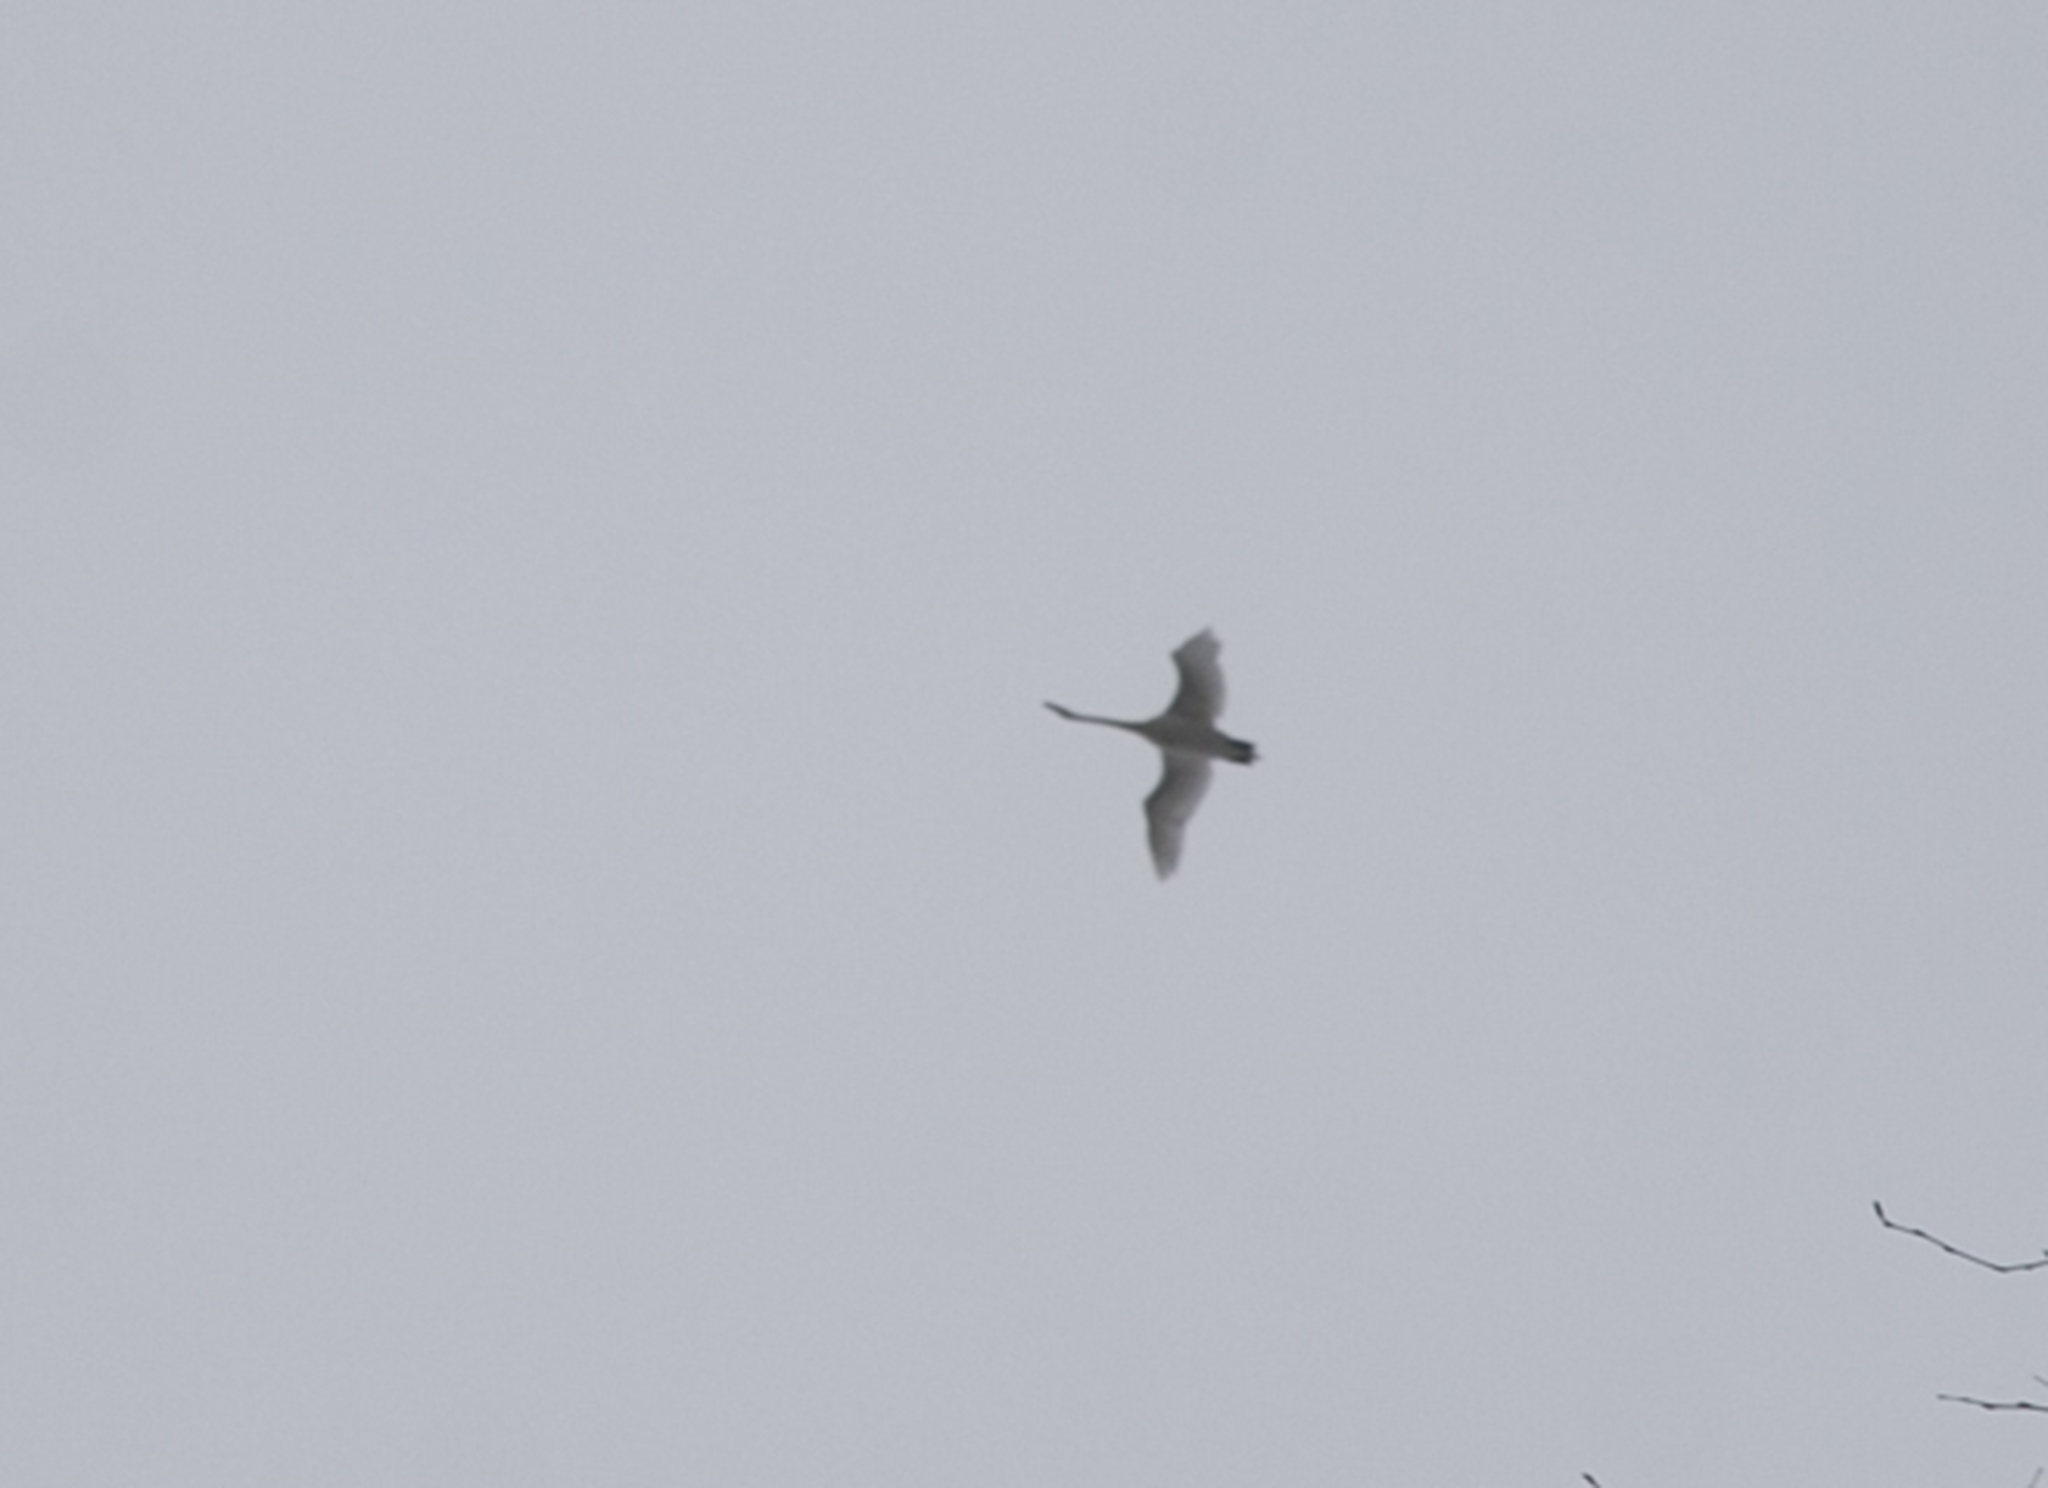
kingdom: Animalia
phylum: Chordata
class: Aves
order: Anseriformes
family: Anatidae
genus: Cygnus
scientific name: Cygnus olor
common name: Mute swan
